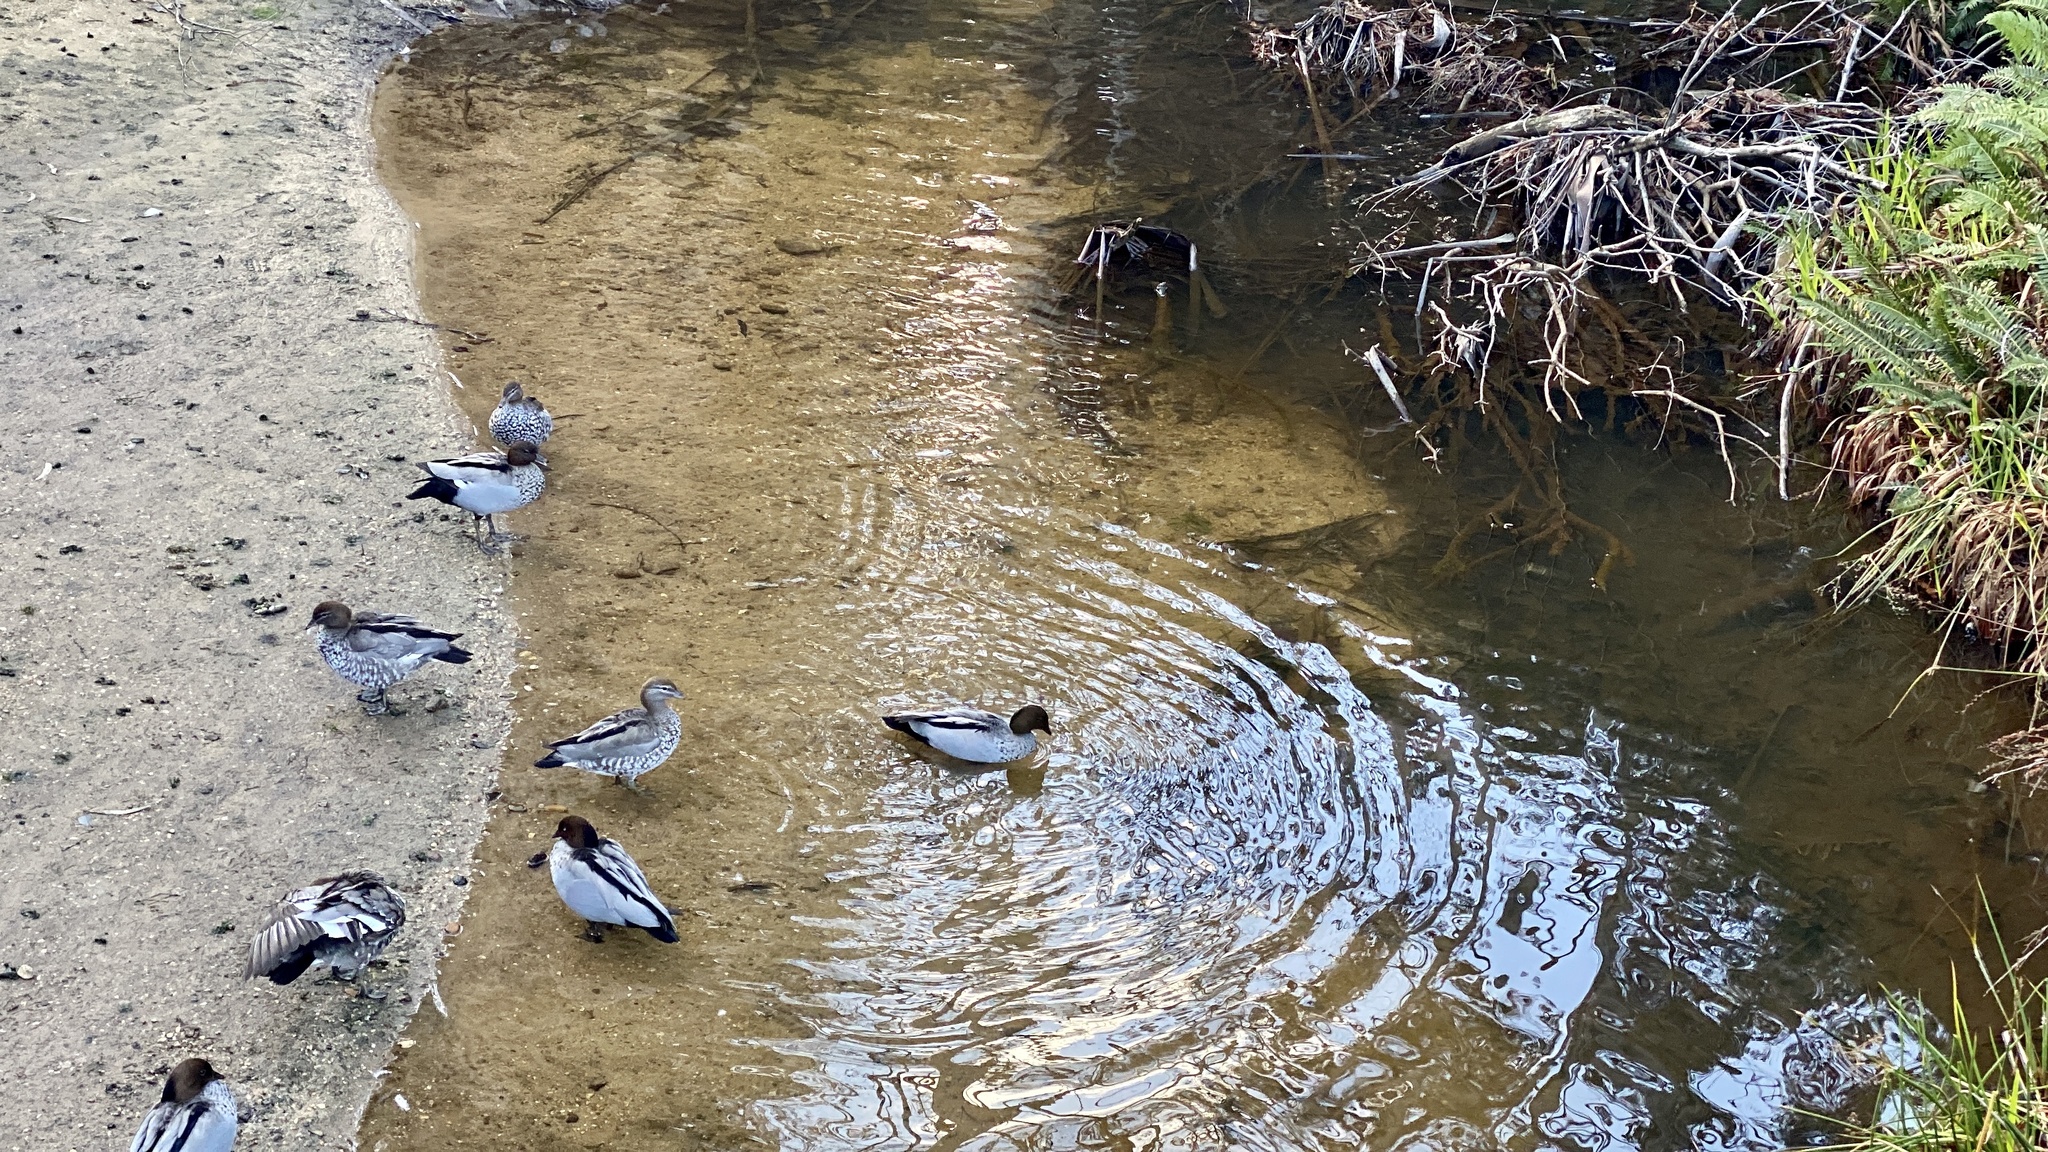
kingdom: Animalia
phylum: Chordata
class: Aves
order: Anseriformes
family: Anatidae
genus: Chenonetta
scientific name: Chenonetta jubata
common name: Maned duck
